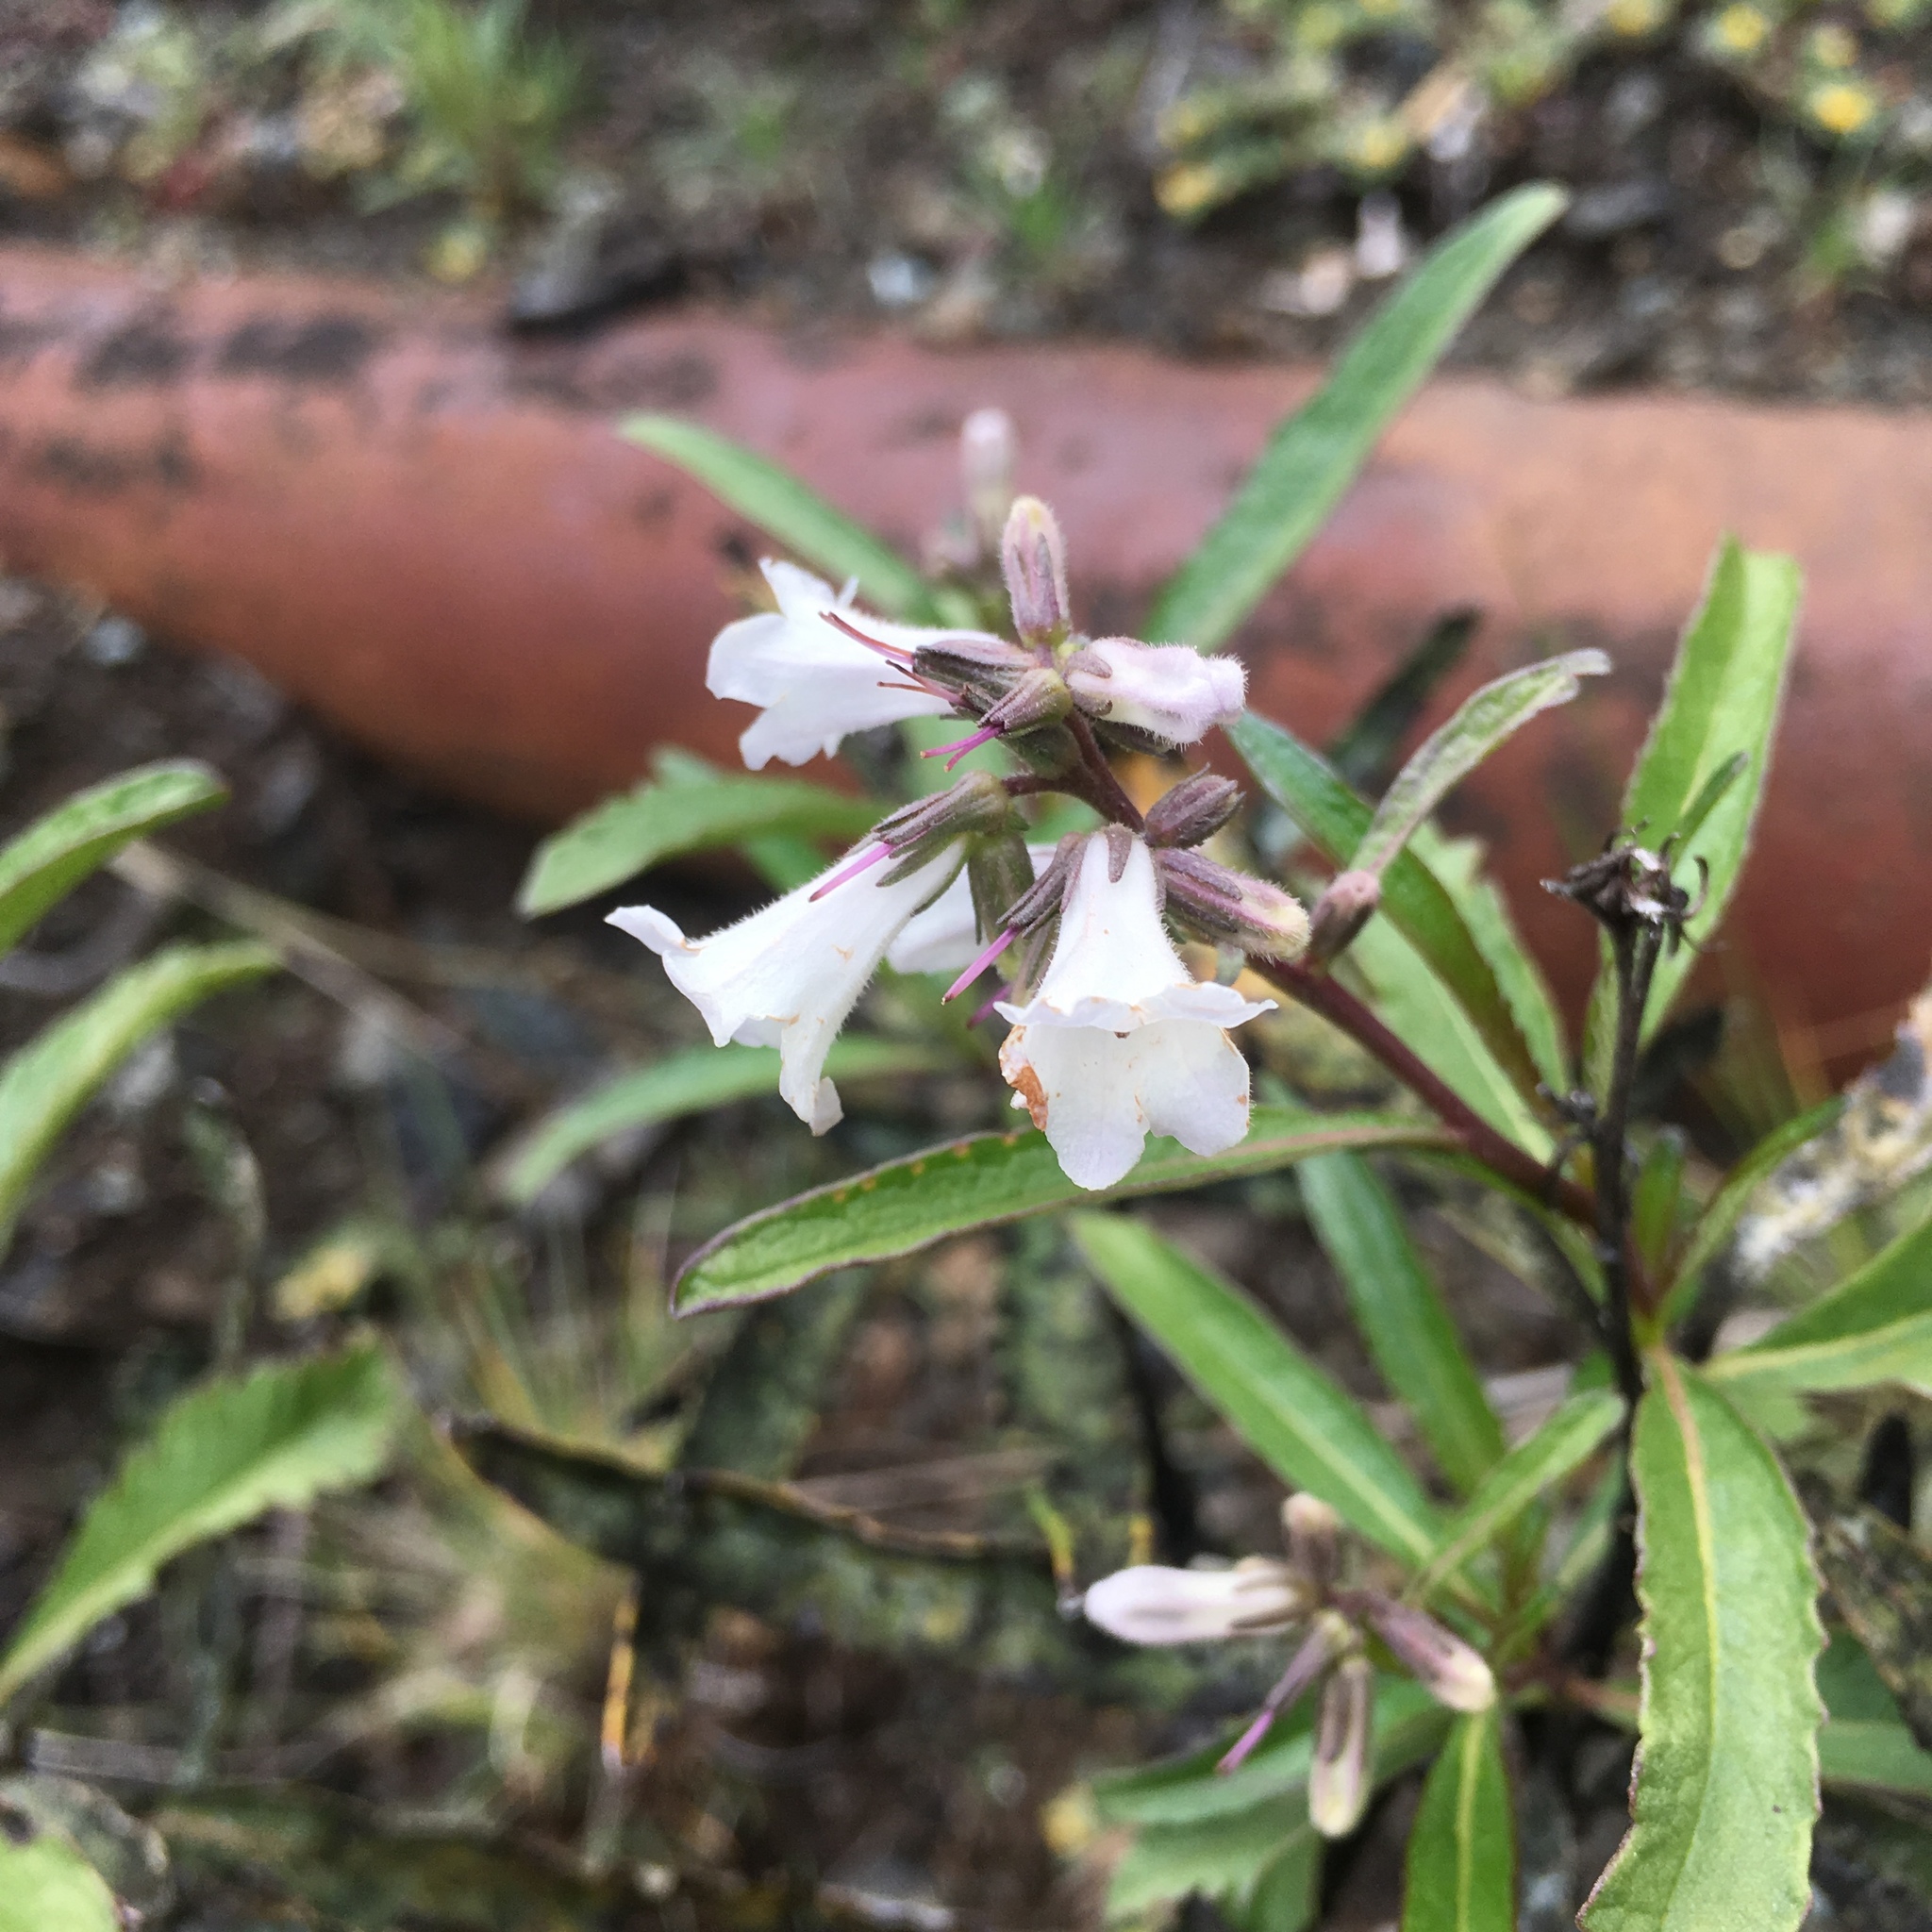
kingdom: Plantae
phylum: Tracheophyta
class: Magnoliopsida
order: Boraginales
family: Namaceae
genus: Eriodictyon
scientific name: Eriodictyon californicum
